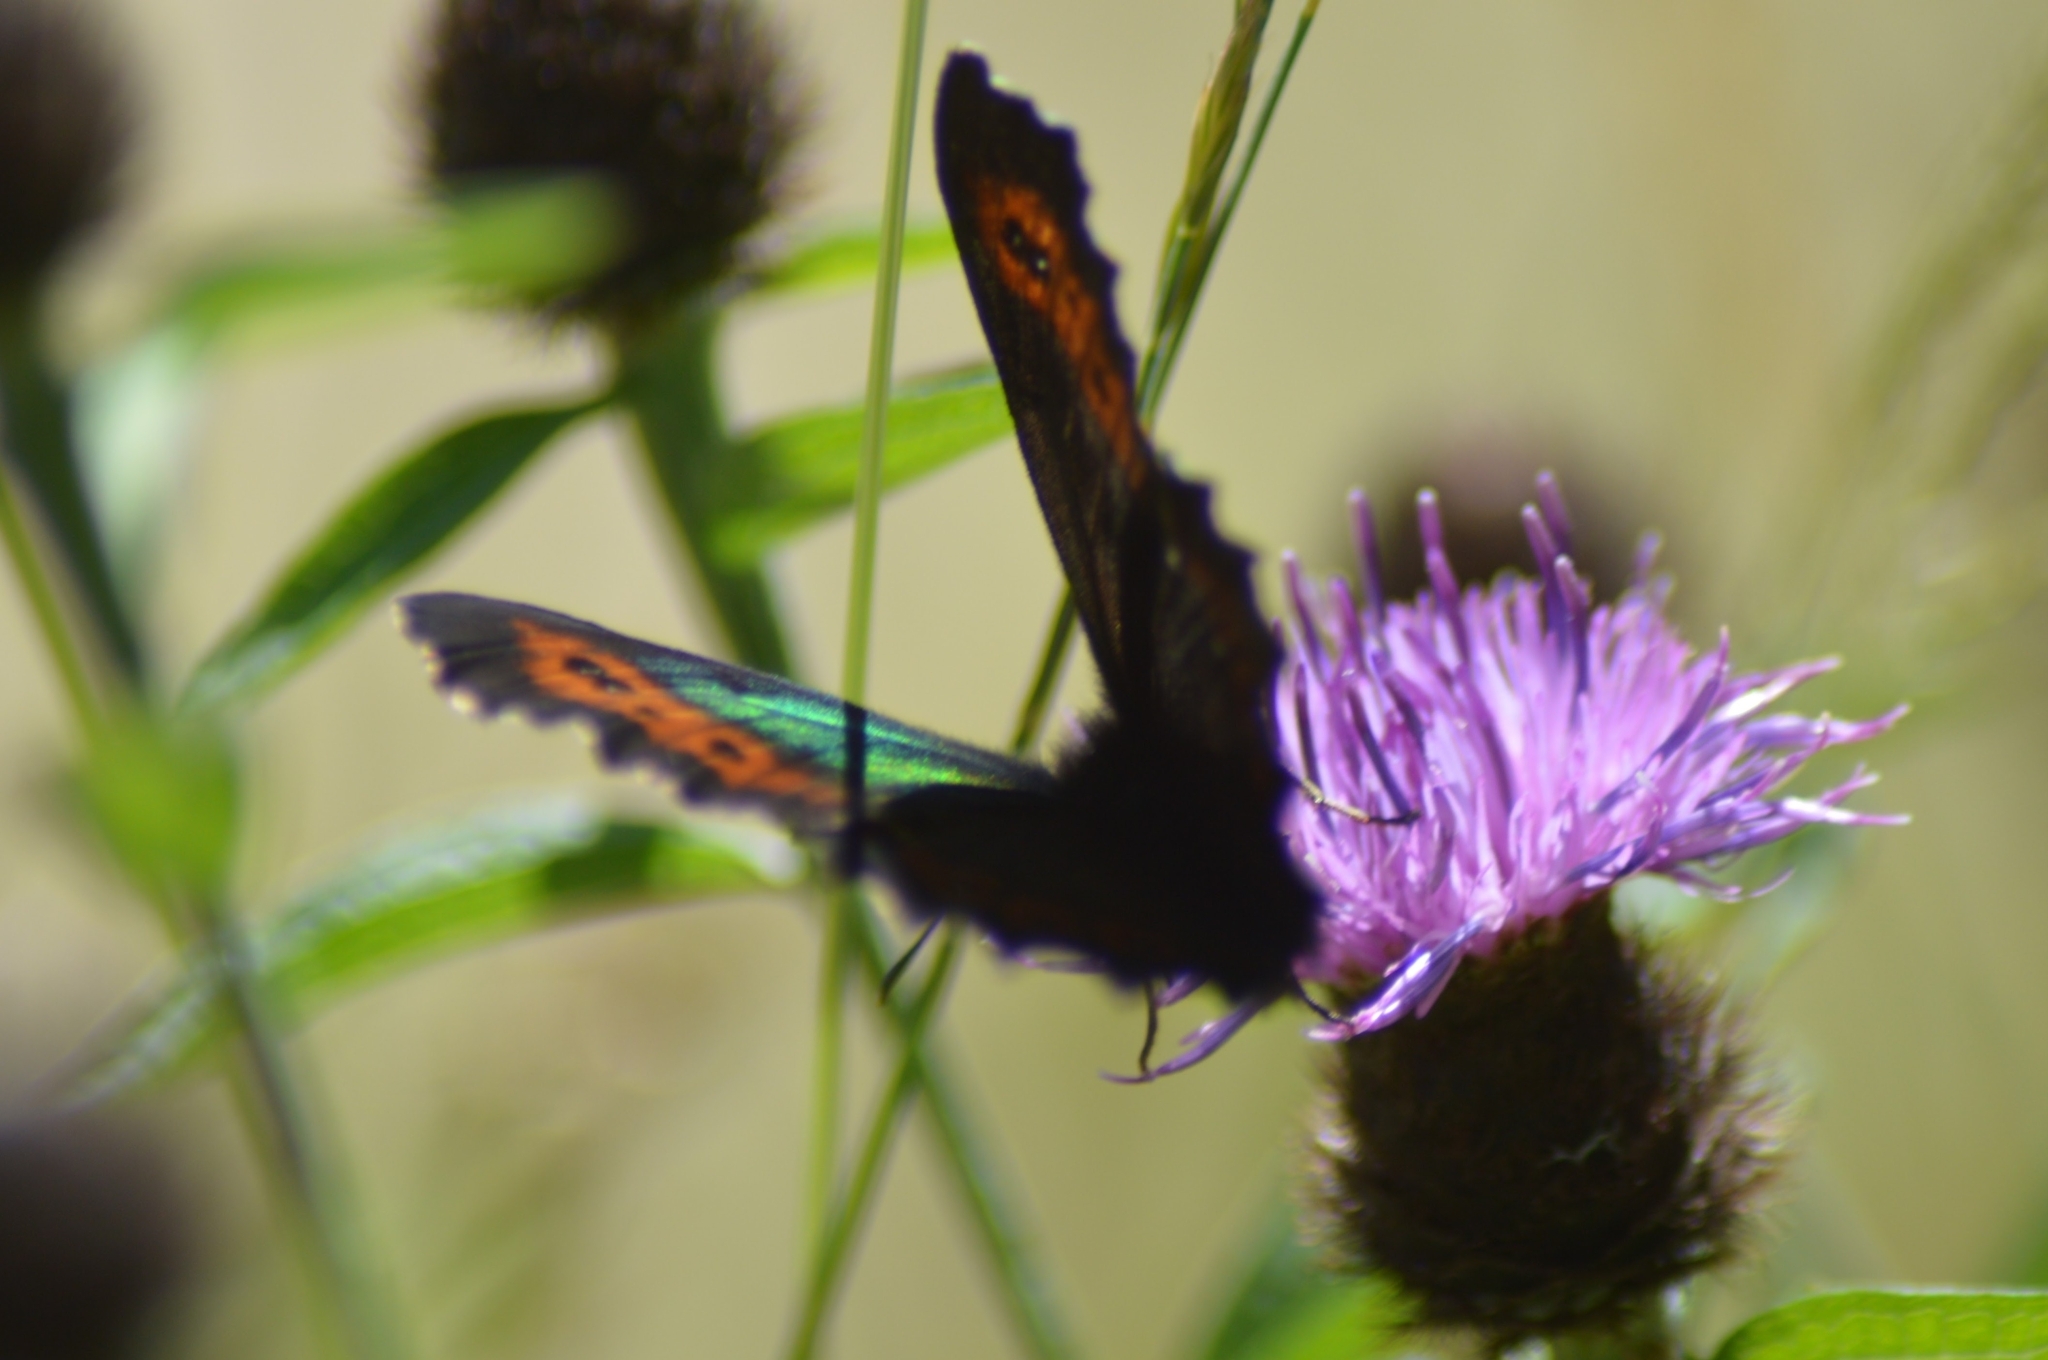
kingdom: Animalia
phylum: Arthropoda
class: Insecta
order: Lepidoptera
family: Nymphalidae
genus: Erebia
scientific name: Erebia ligea
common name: Arran brown
